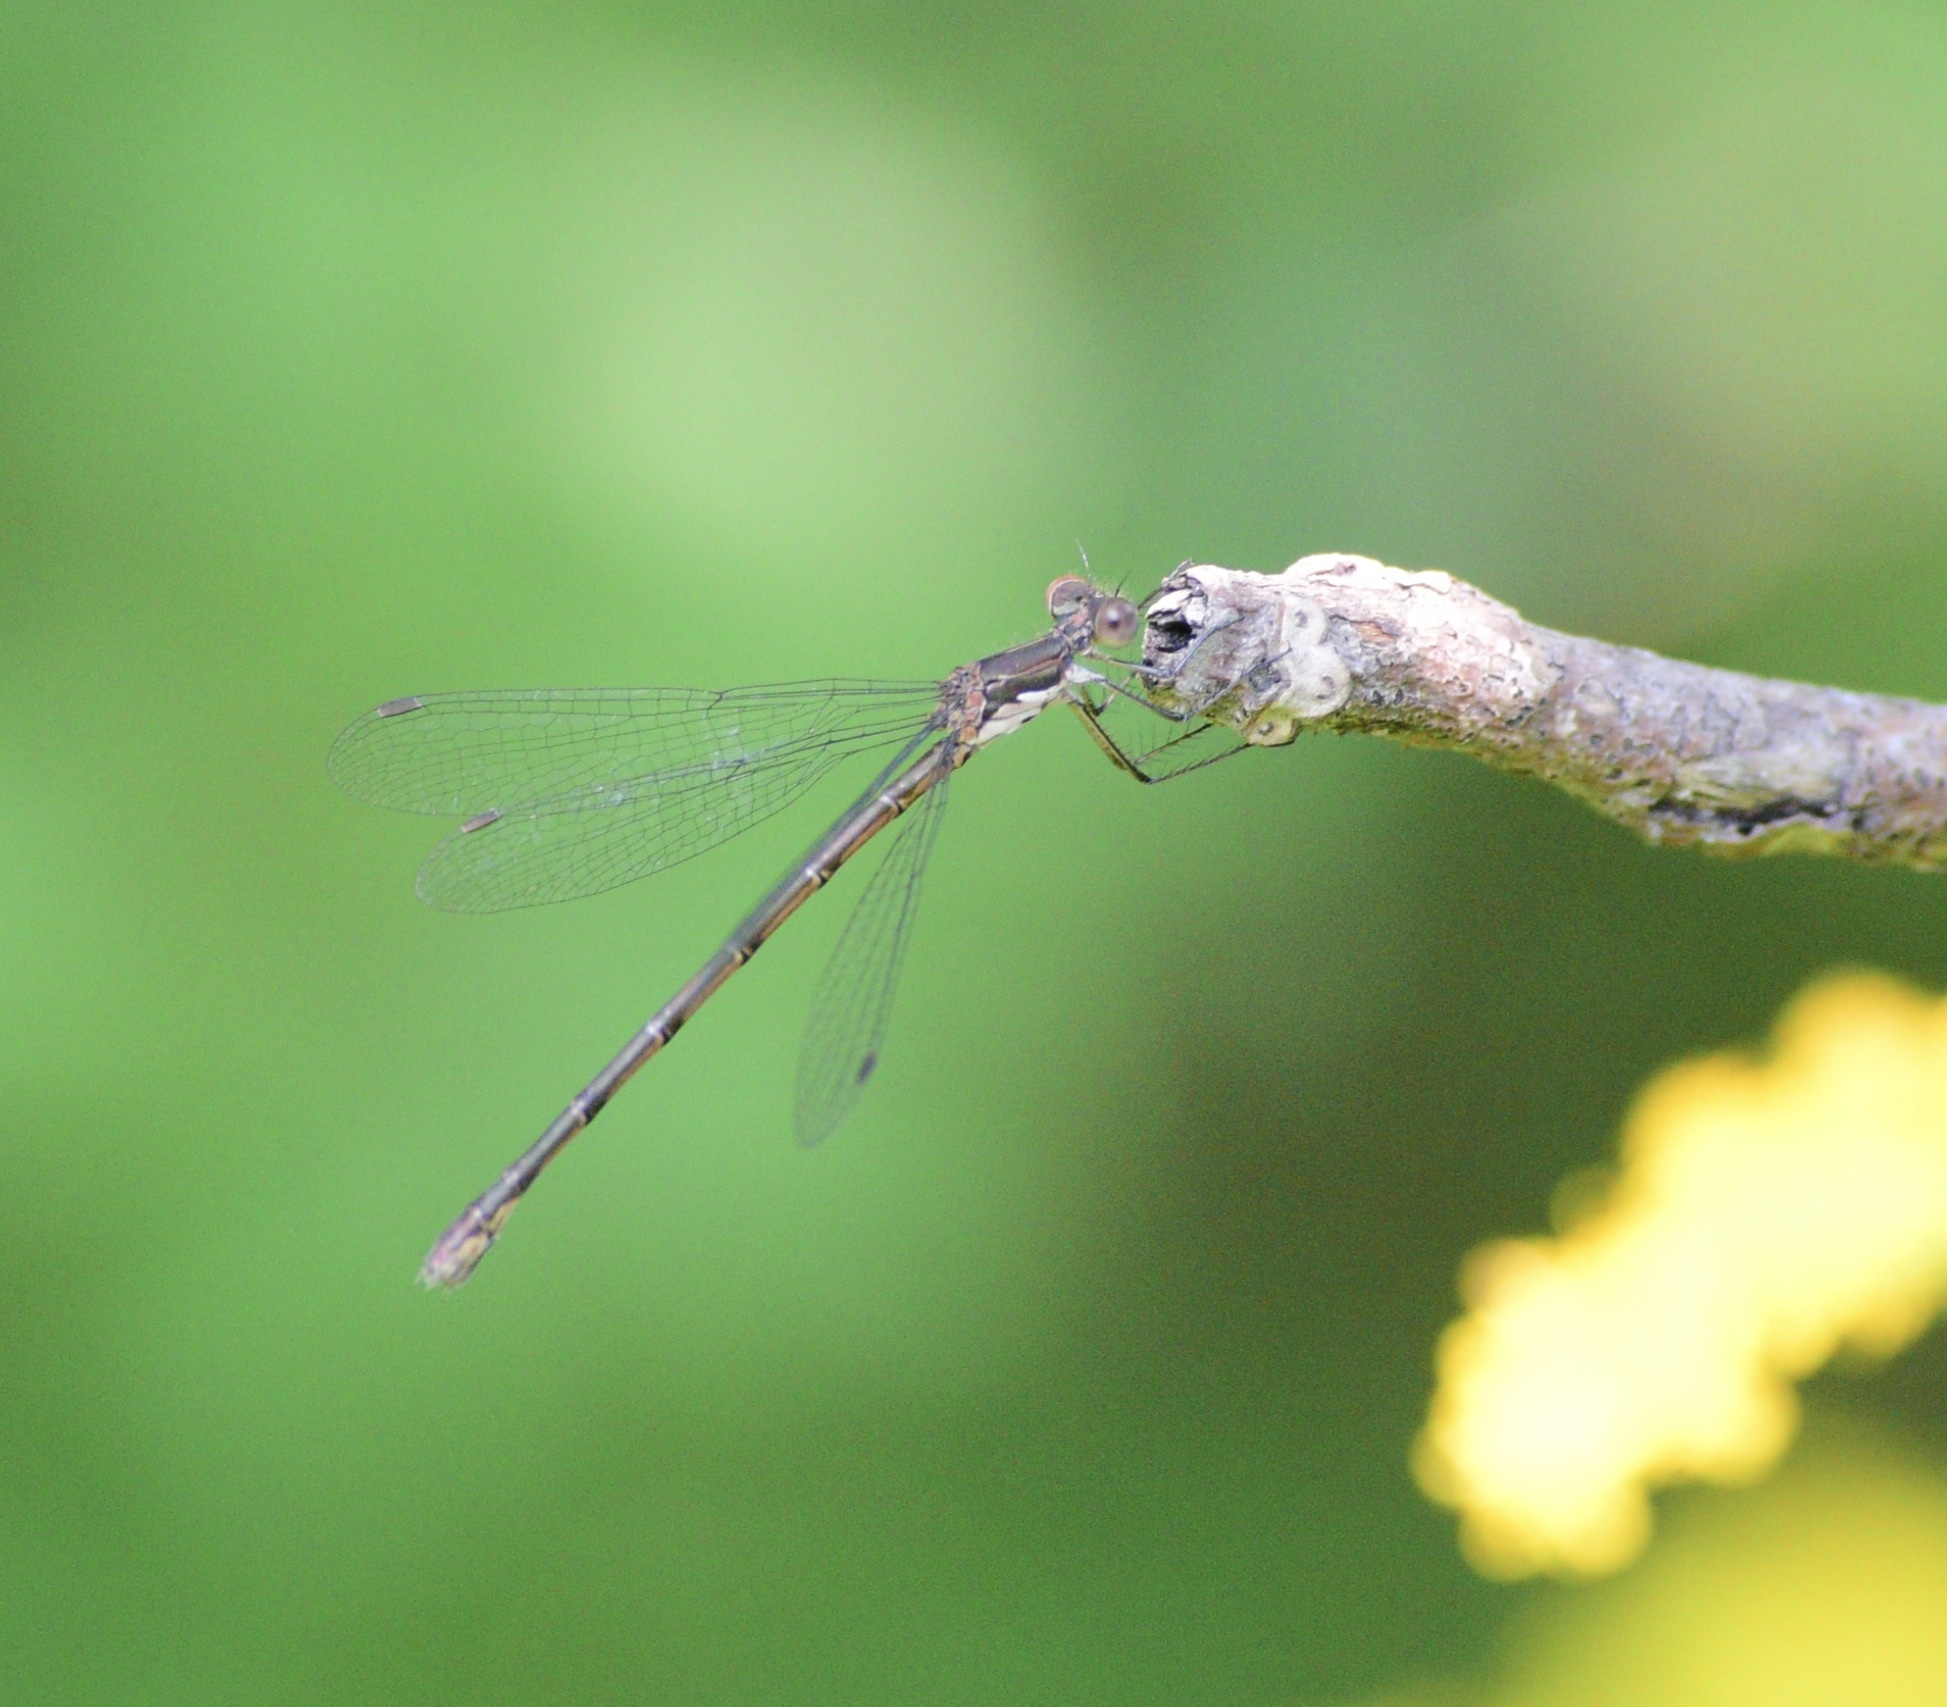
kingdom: Animalia
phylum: Arthropoda
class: Insecta
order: Odonata
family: Lestidae
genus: Lestes
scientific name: Lestes congener
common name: Spotted spreadwing
